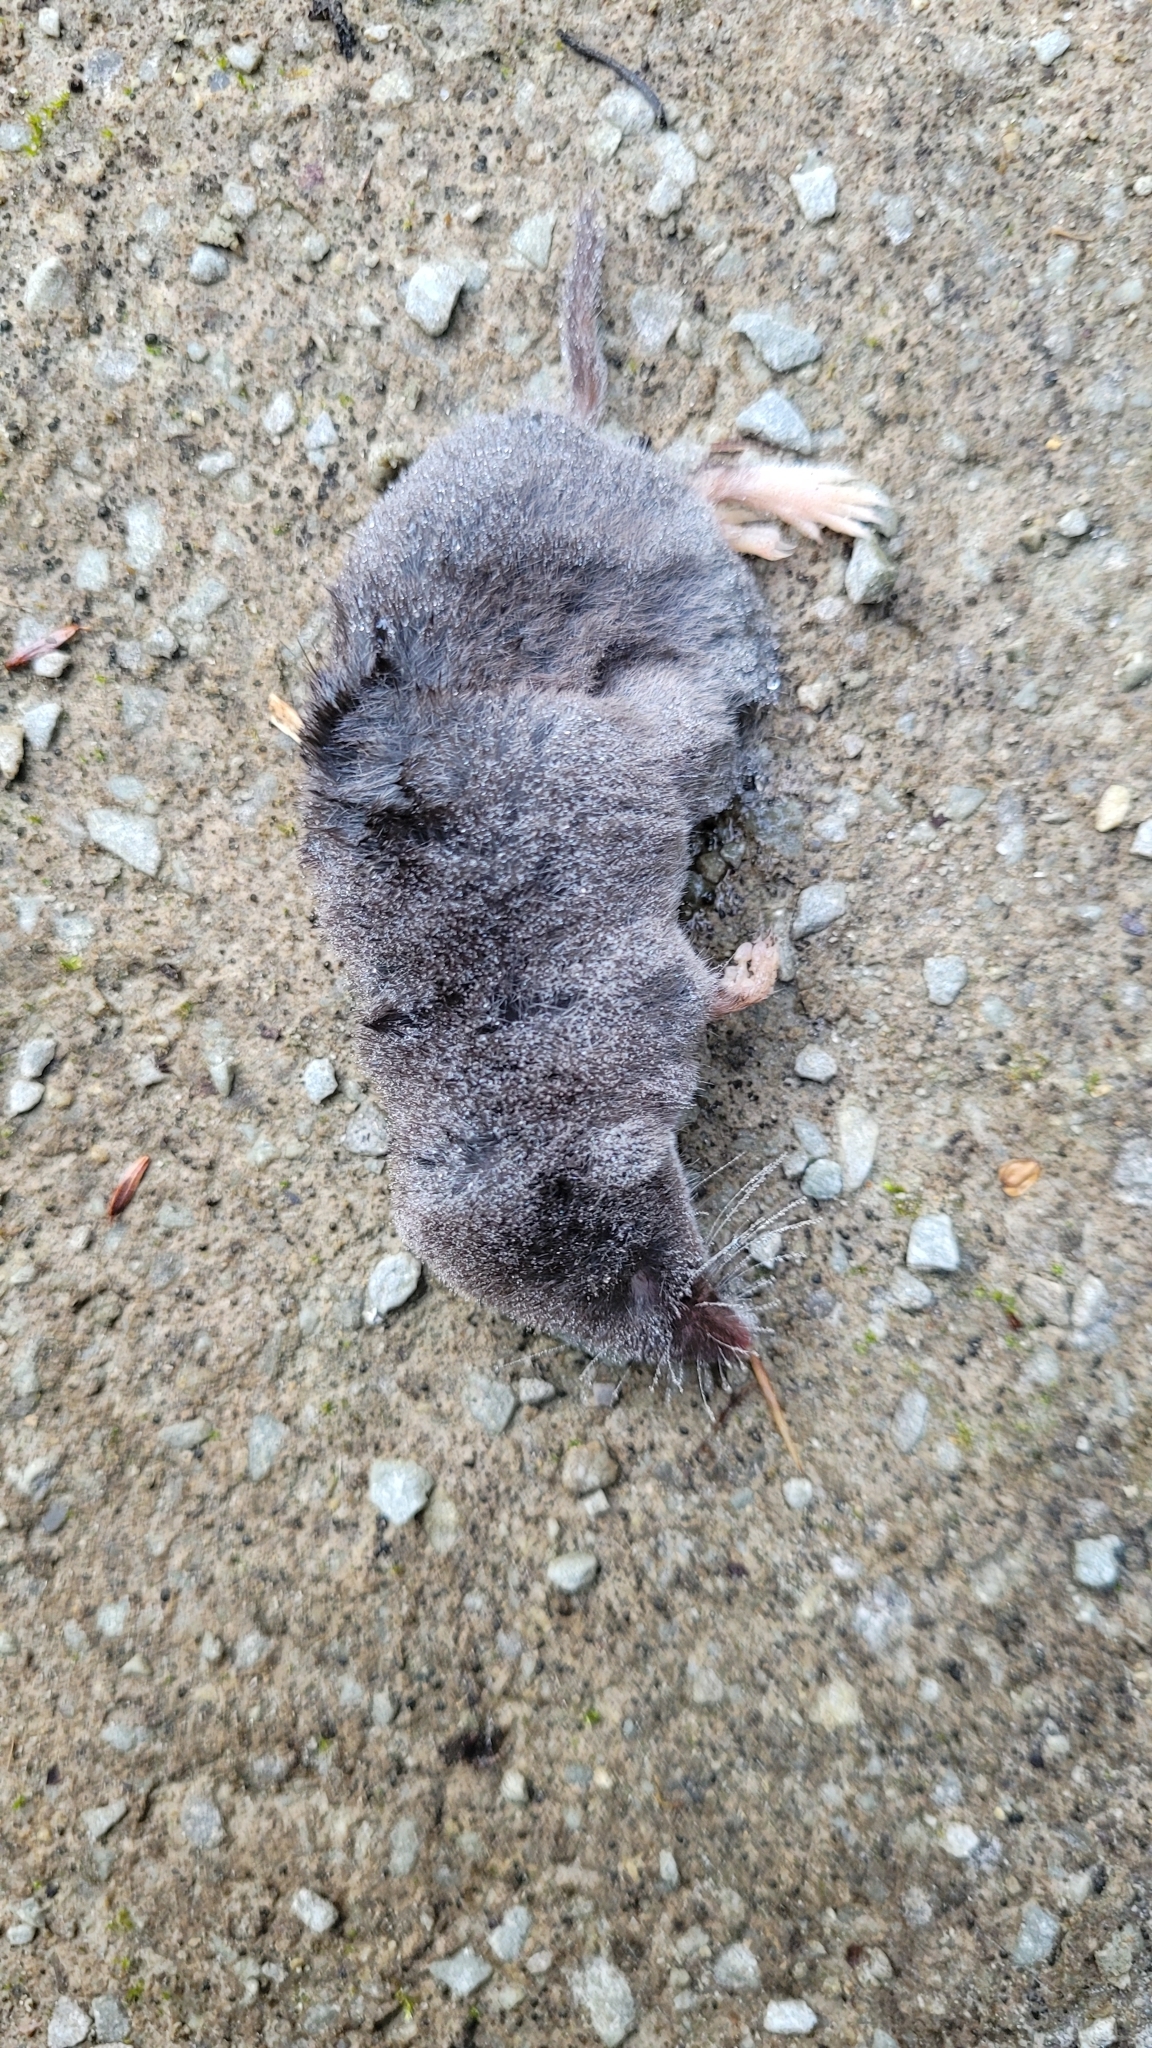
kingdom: Animalia
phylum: Chordata
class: Mammalia
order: Soricomorpha
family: Soricidae
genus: Blarina
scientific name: Blarina brevicauda
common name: Northern short-tailed shrew
